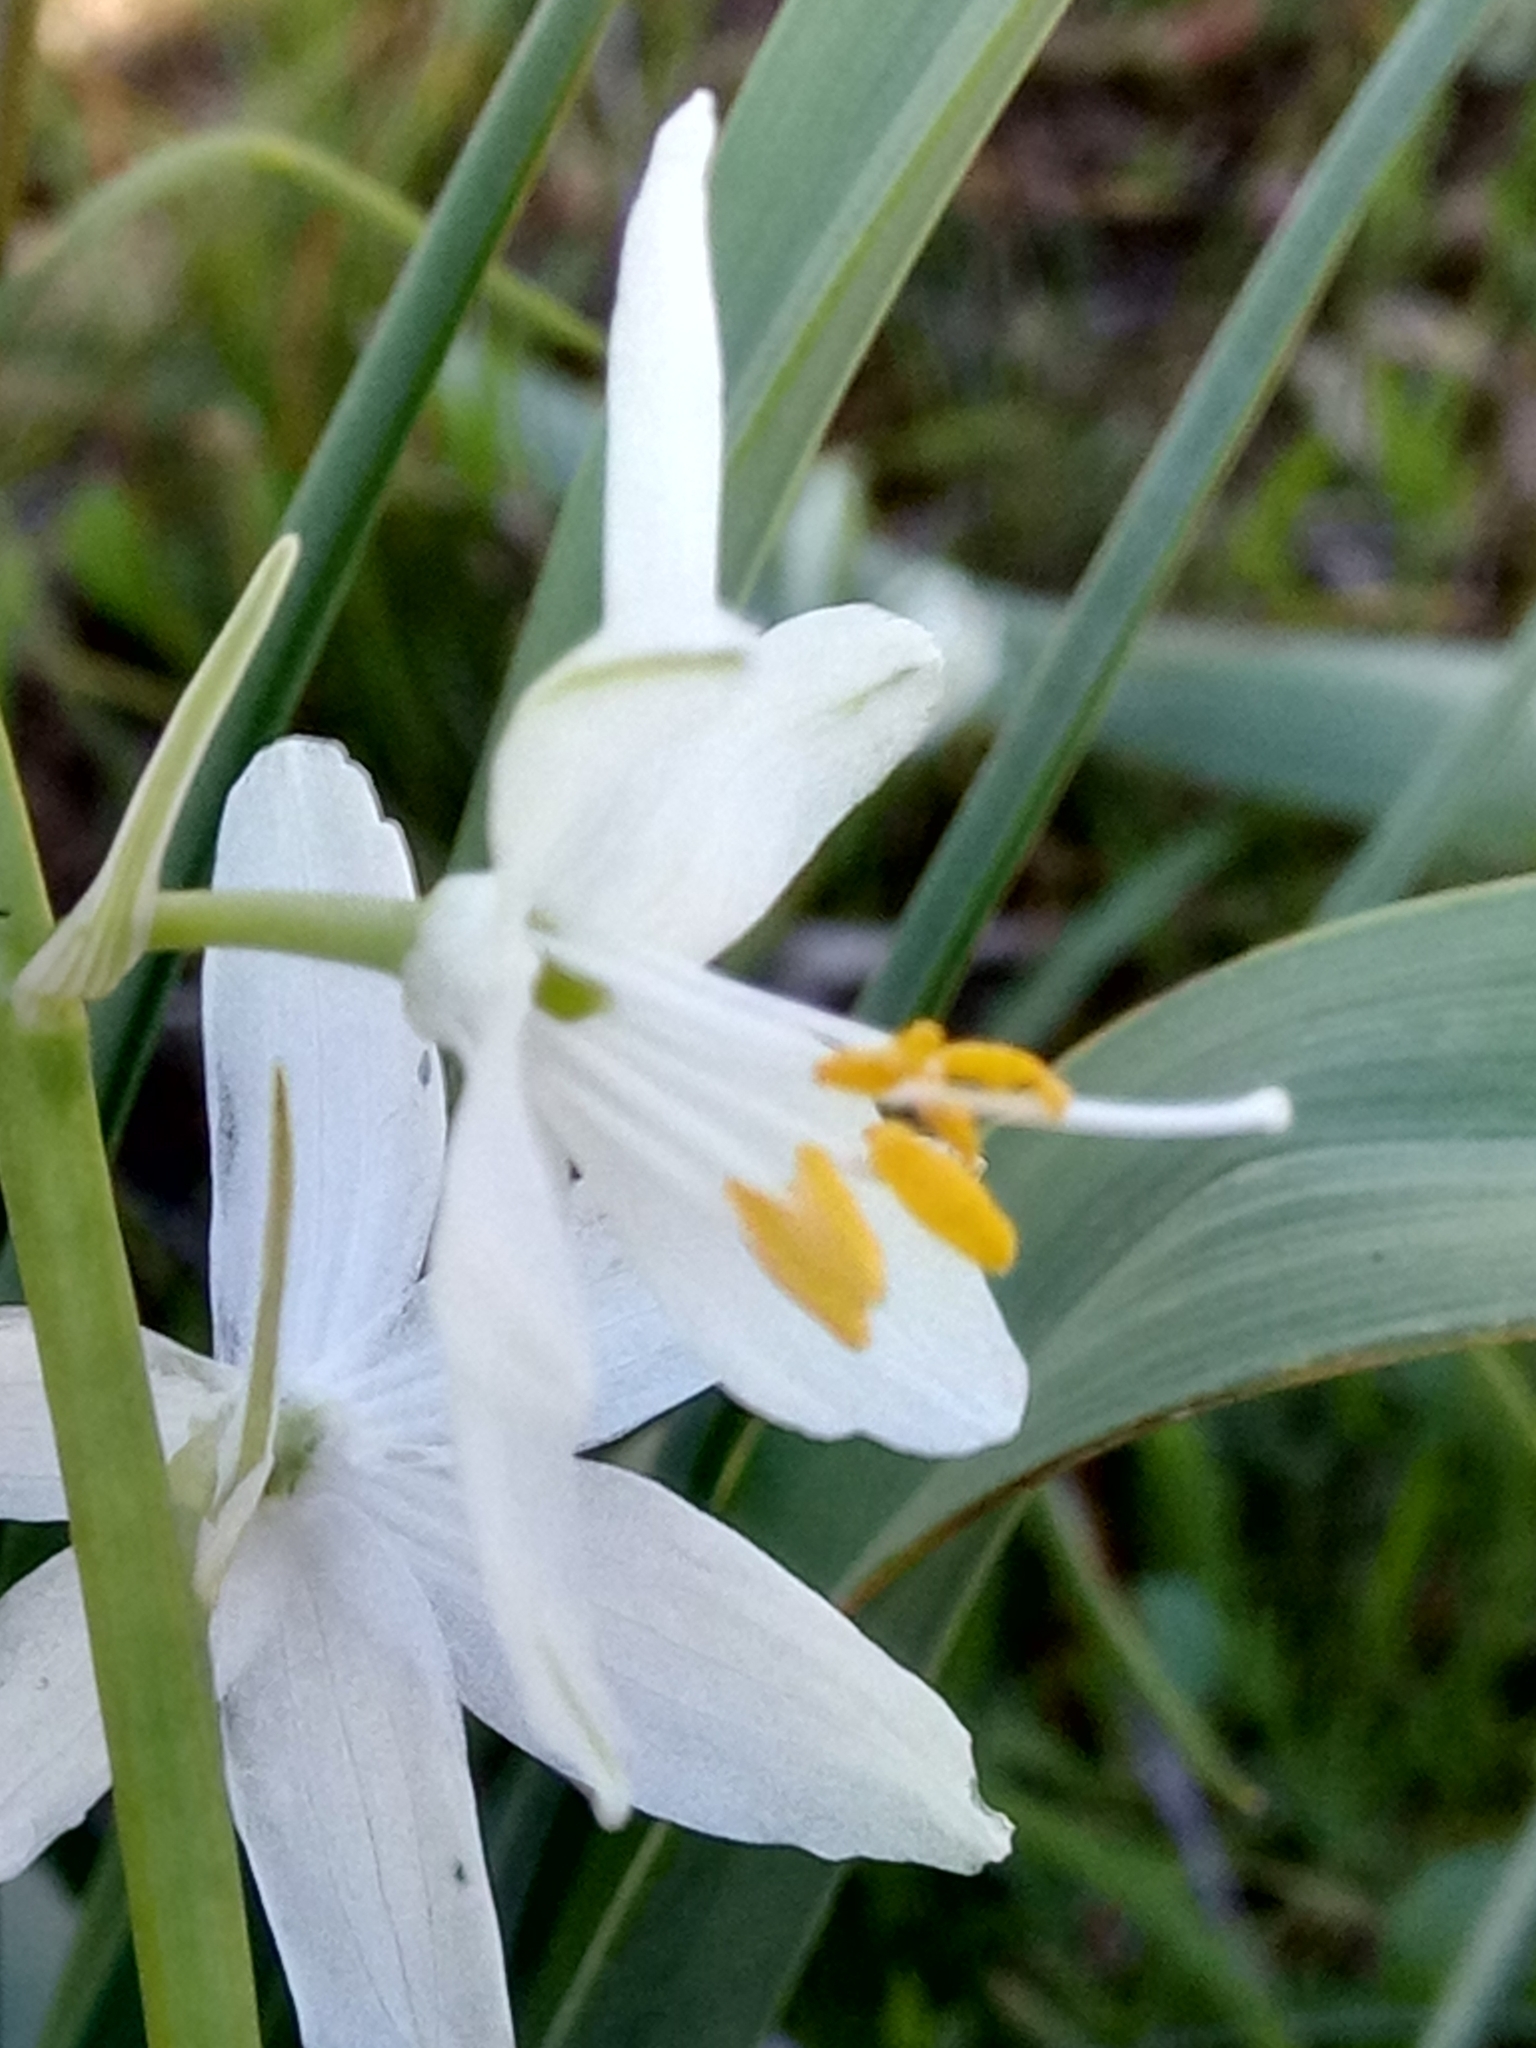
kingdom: Plantae
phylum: Tracheophyta
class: Liliopsida
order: Asparagales
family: Asparagaceae
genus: Anthericum
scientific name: Anthericum baeticum
